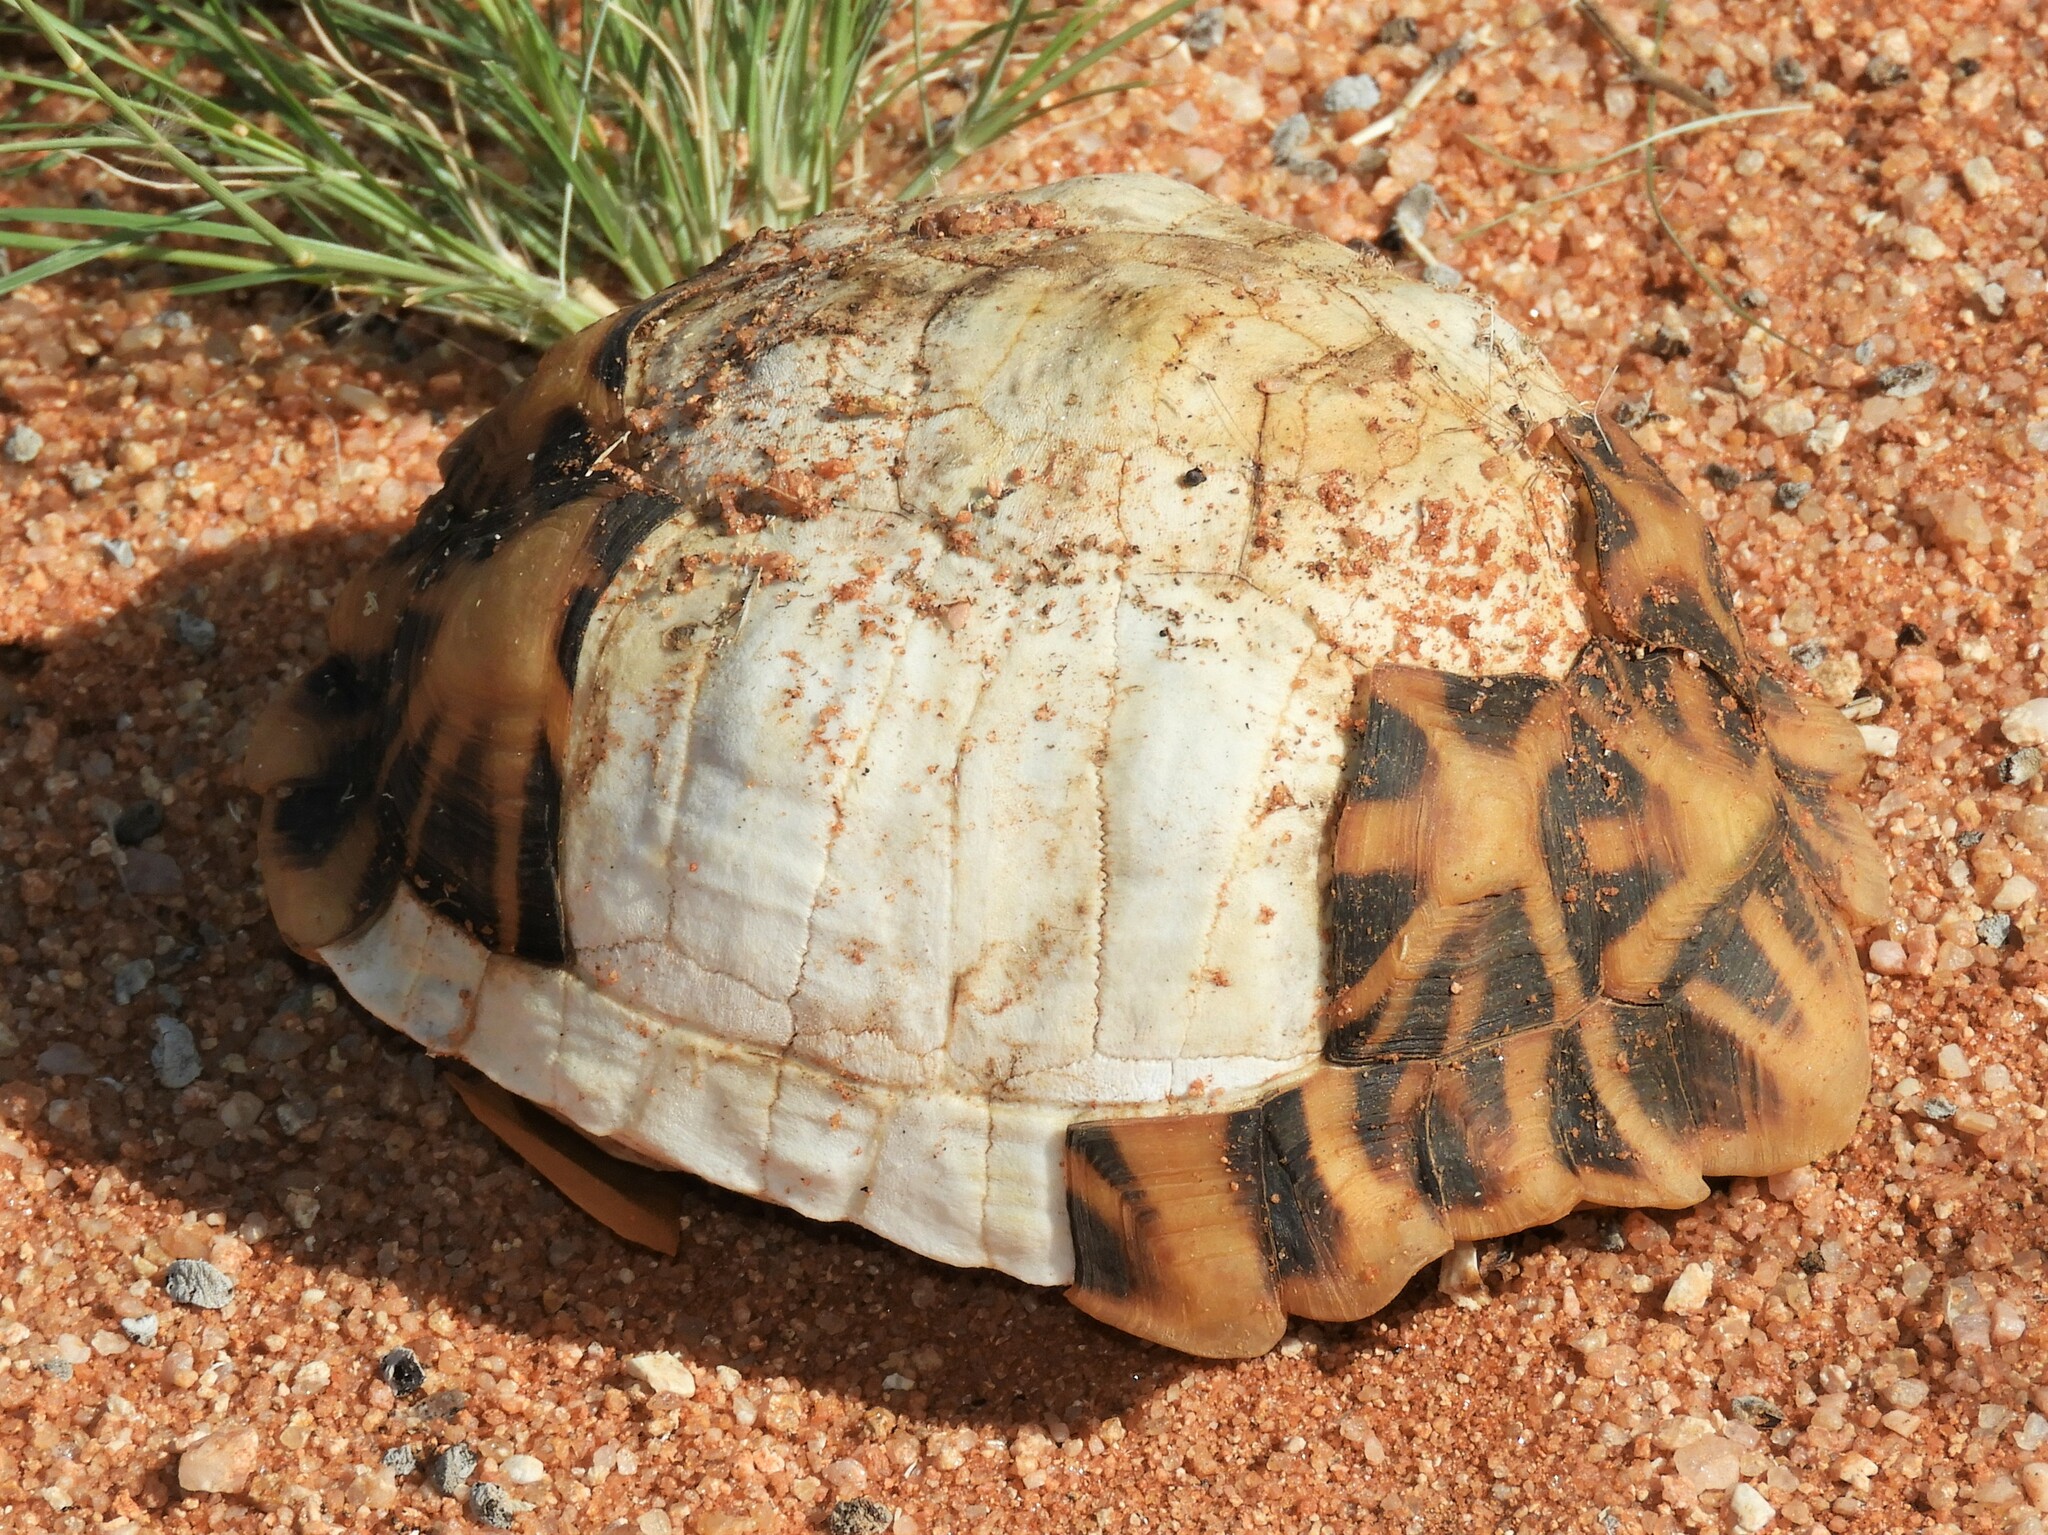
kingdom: Animalia
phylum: Chordata
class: Testudines
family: Testudinidae
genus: Psammobates
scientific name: Psammobates tentorius
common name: Tent tortoise
